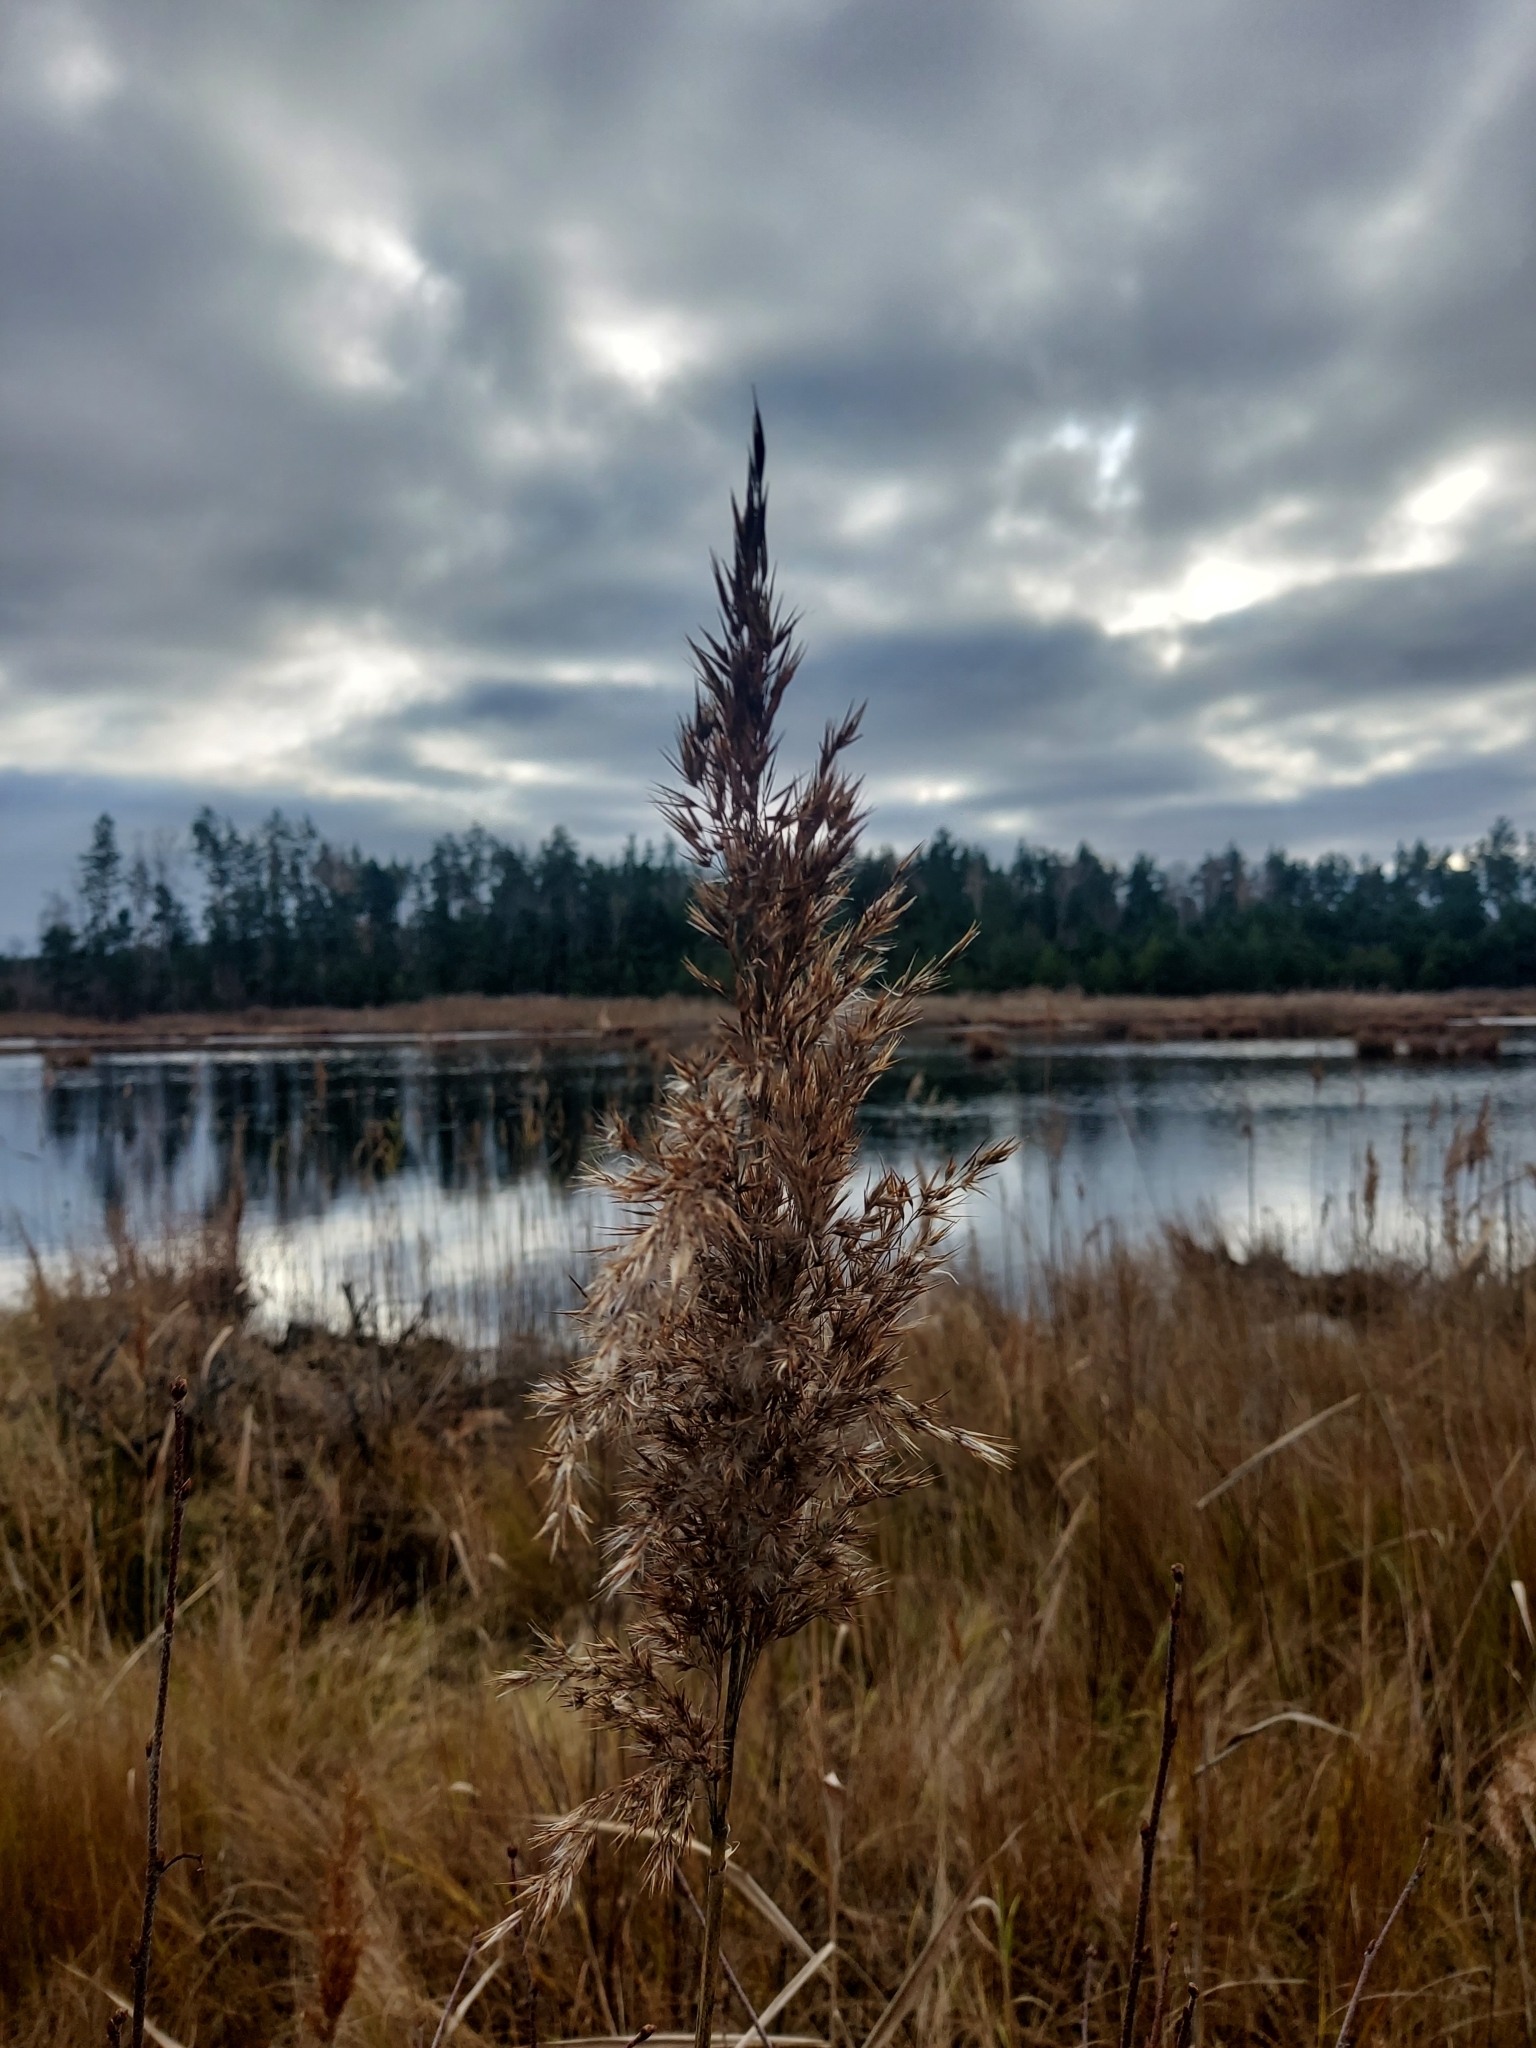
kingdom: Plantae
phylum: Tracheophyta
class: Liliopsida
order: Poales
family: Poaceae
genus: Phragmites
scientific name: Phragmites australis
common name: Common reed
